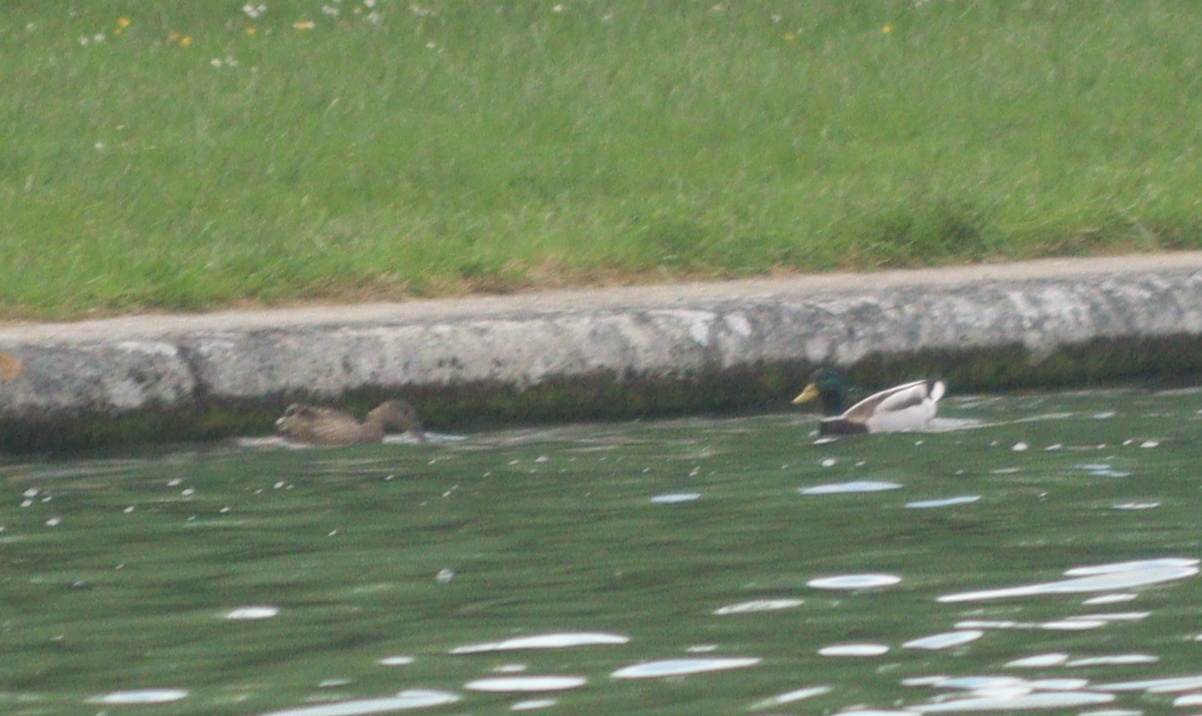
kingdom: Animalia
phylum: Chordata
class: Aves
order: Anseriformes
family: Anatidae
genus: Anas
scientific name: Anas platyrhynchos
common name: Mallard
